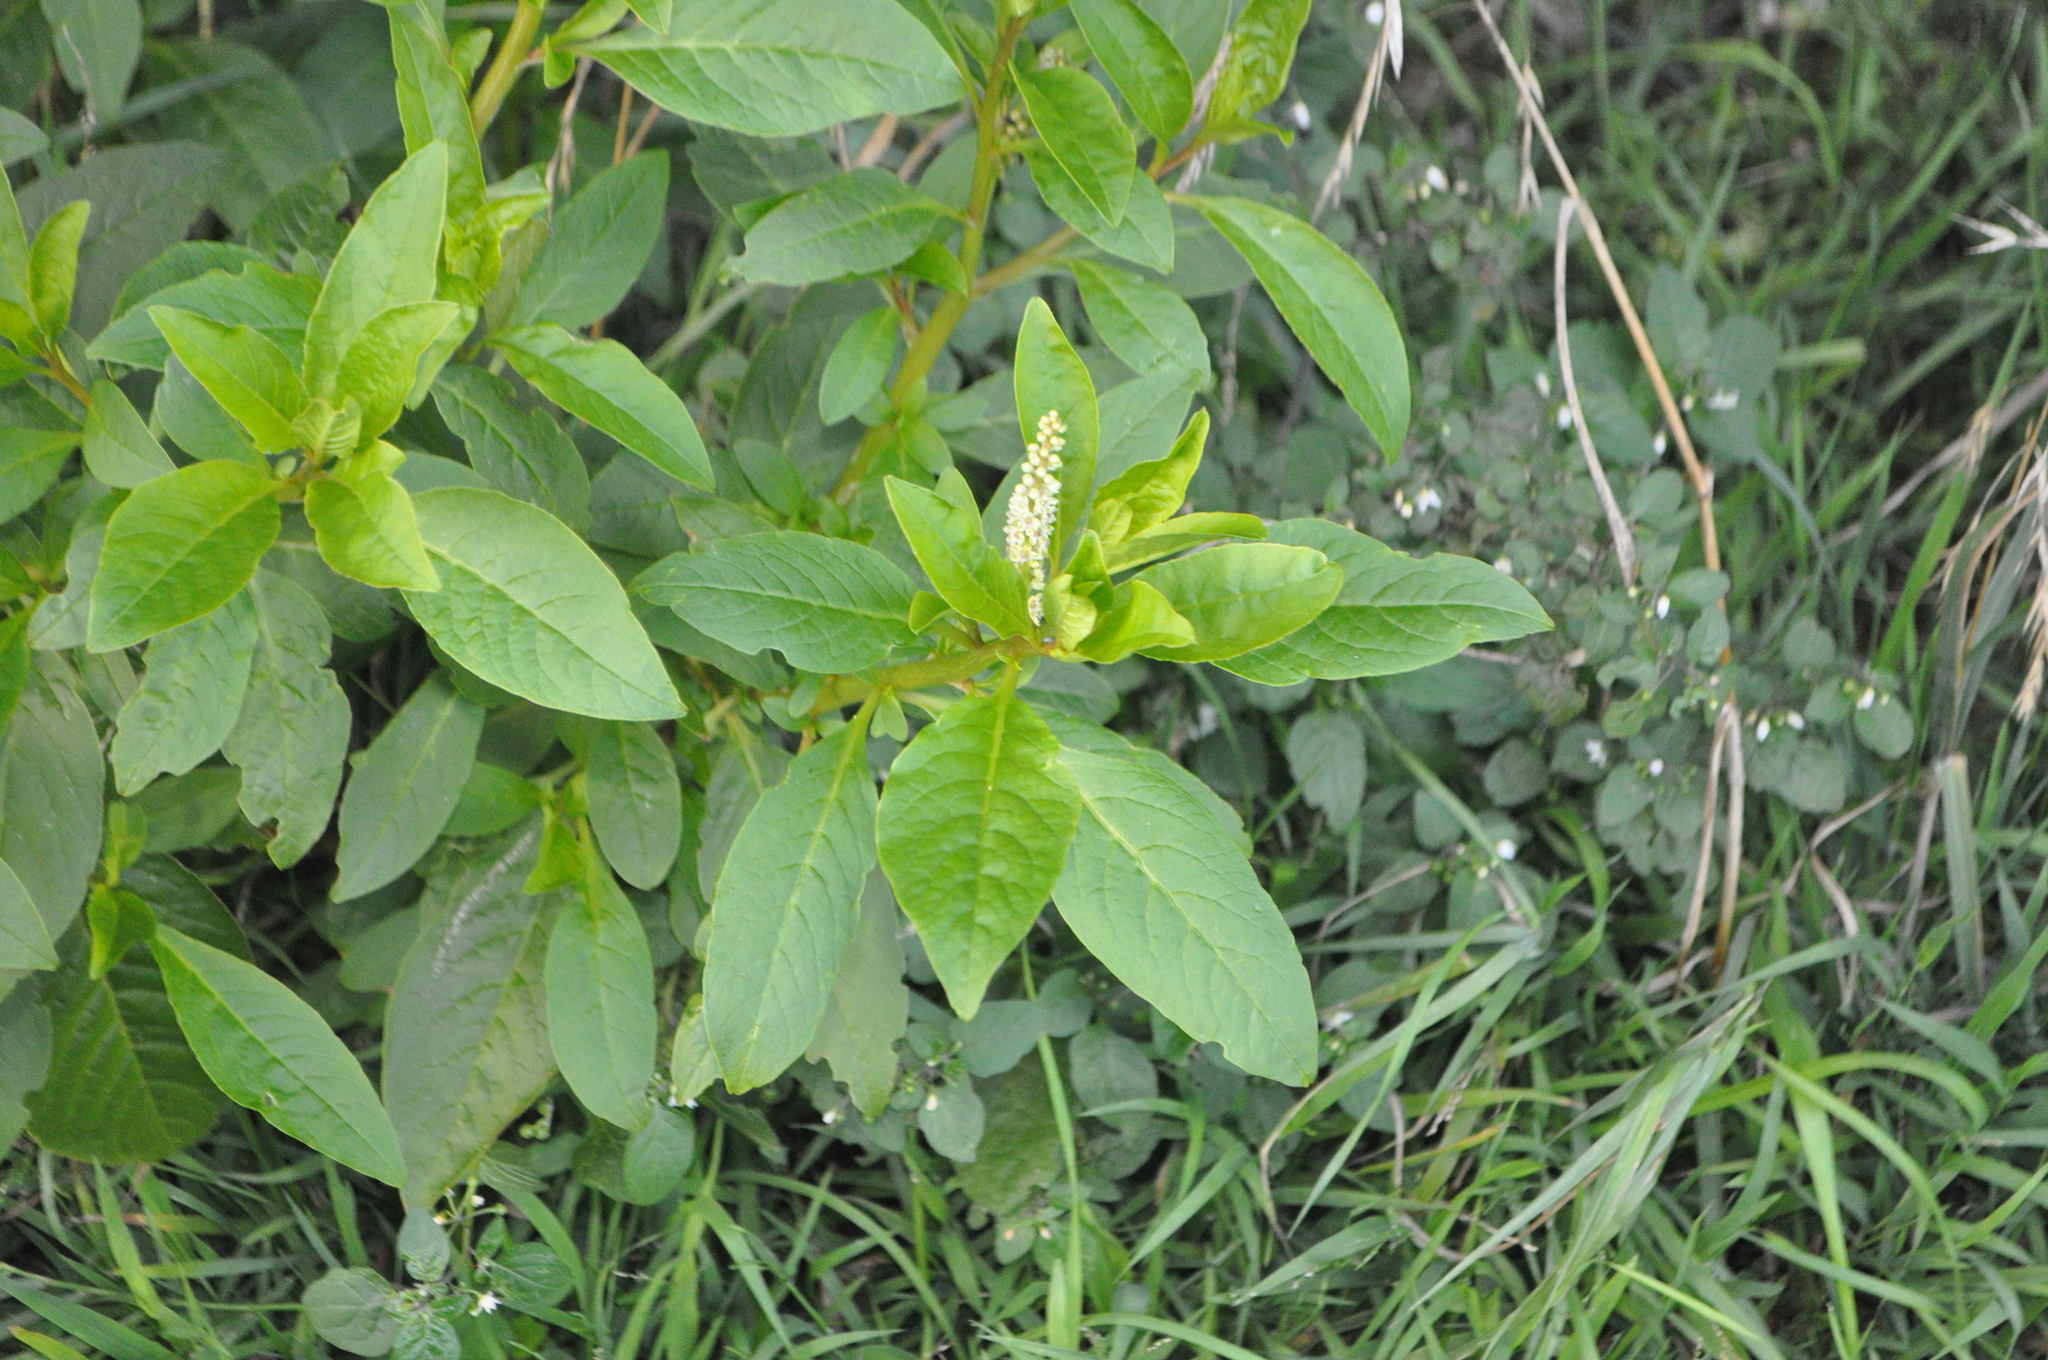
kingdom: Plantae
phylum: Tracheophyta
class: Magnoliopsida
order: Caryophyllales
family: Phytolaccaceae
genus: Phytolacca
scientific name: Phytolacca icosandra
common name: Button pokeweed
